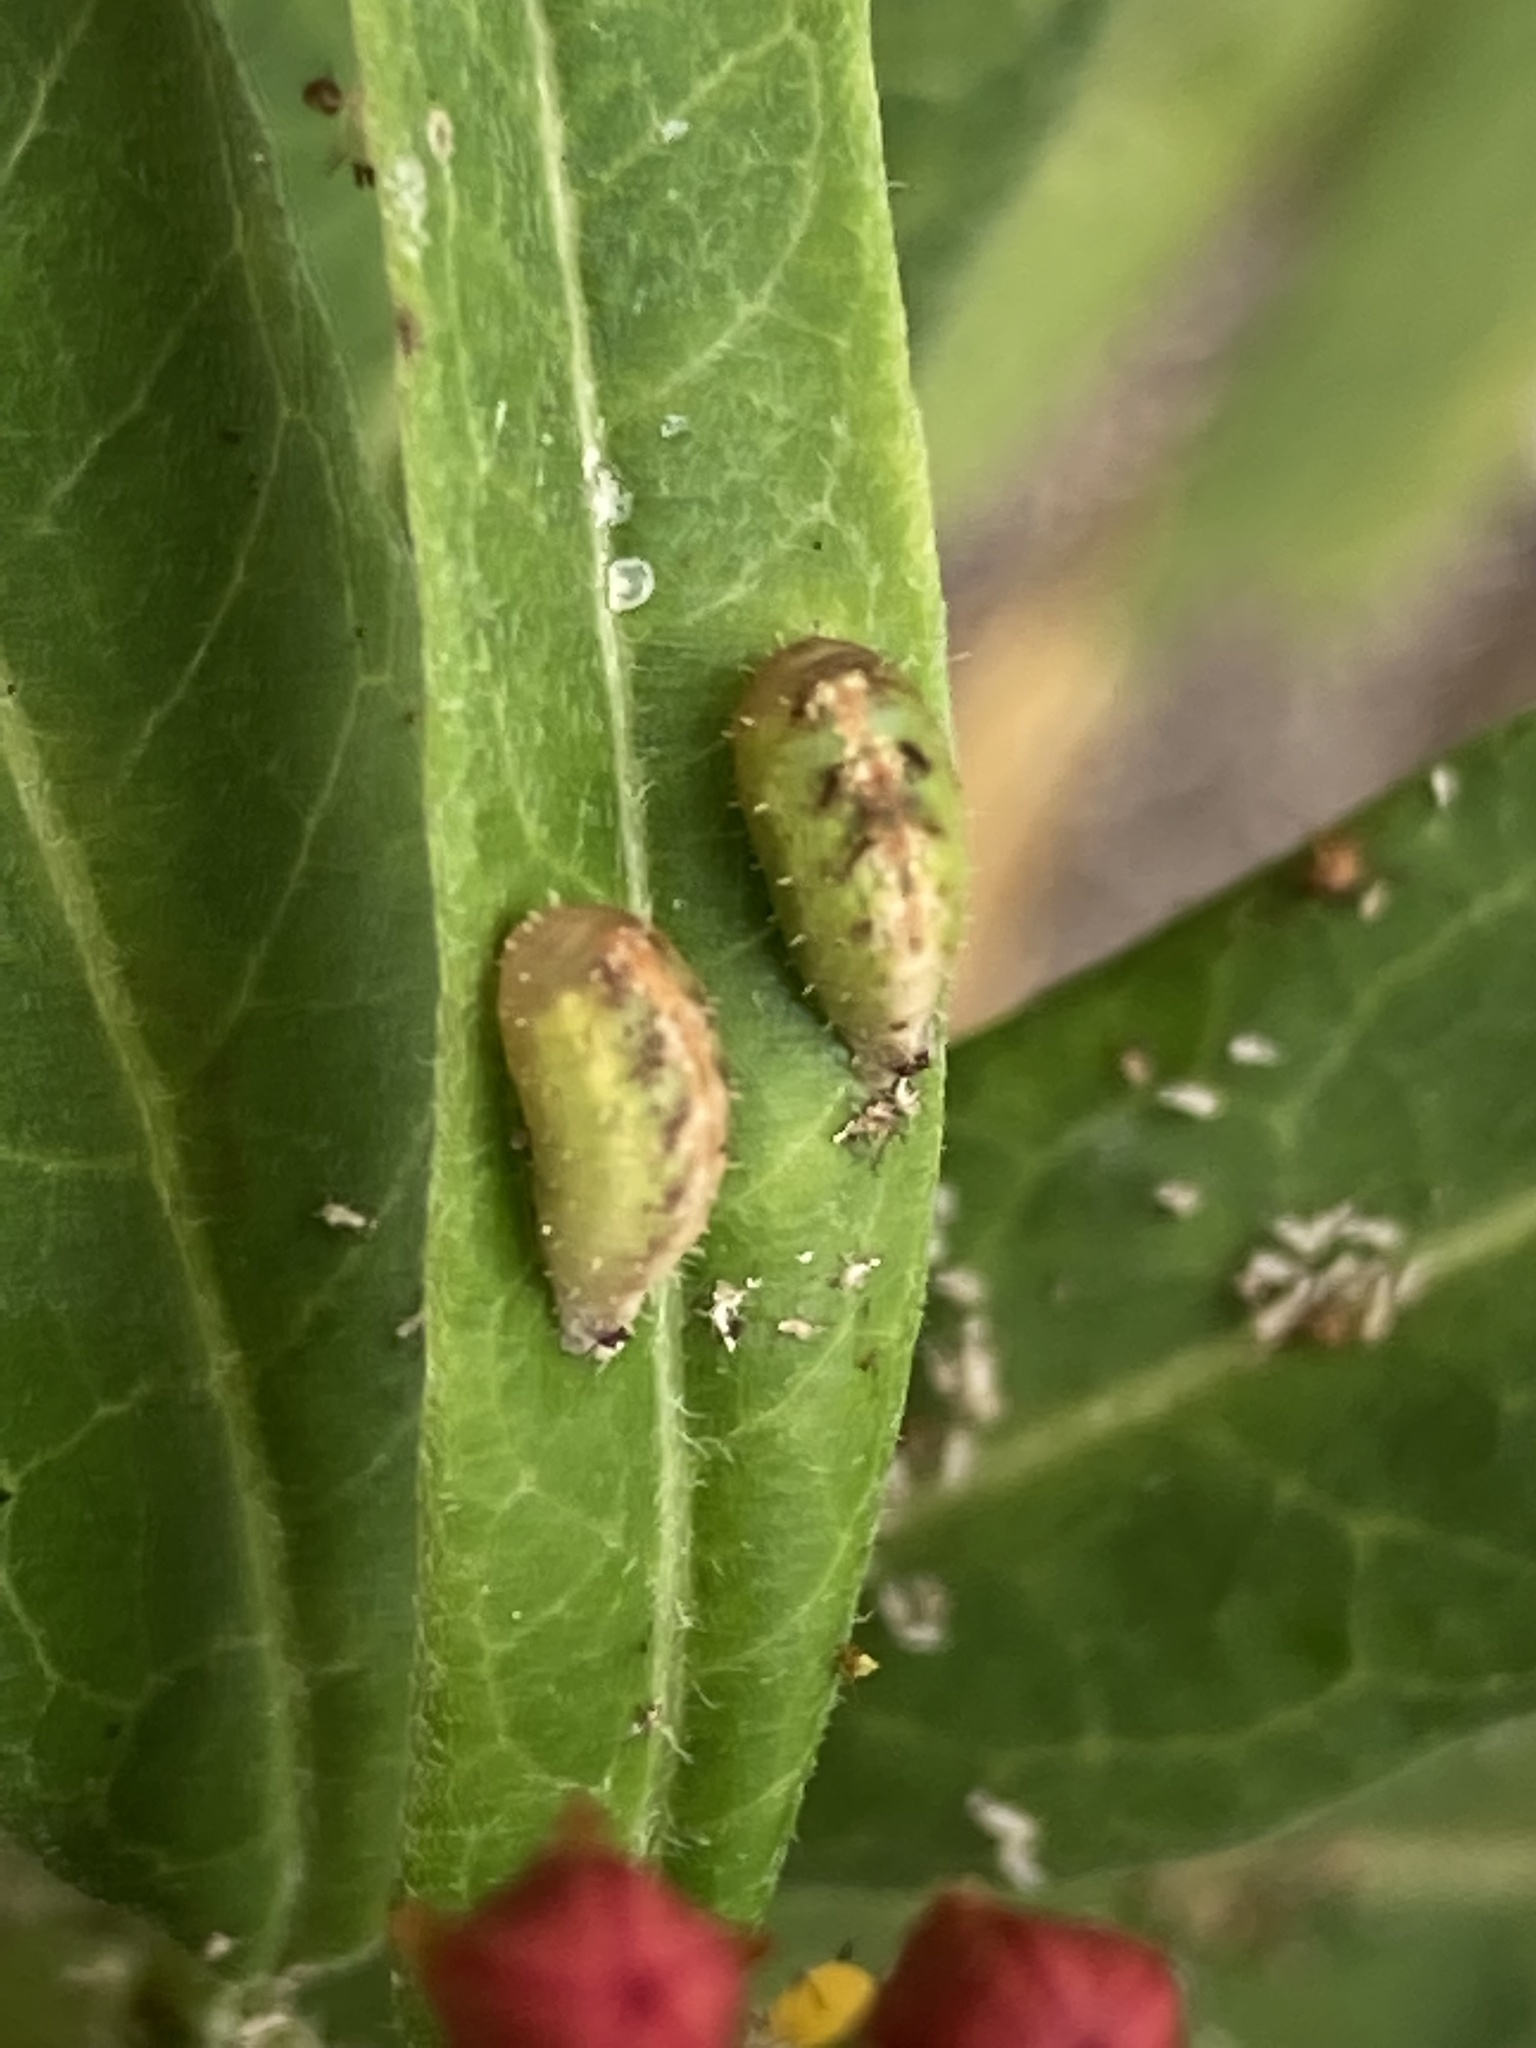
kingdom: Animalia
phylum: Arthropoda
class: Insecta
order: Diptera
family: Syrphidae
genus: Dioprosopa
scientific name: Dioprosopa clavatus
